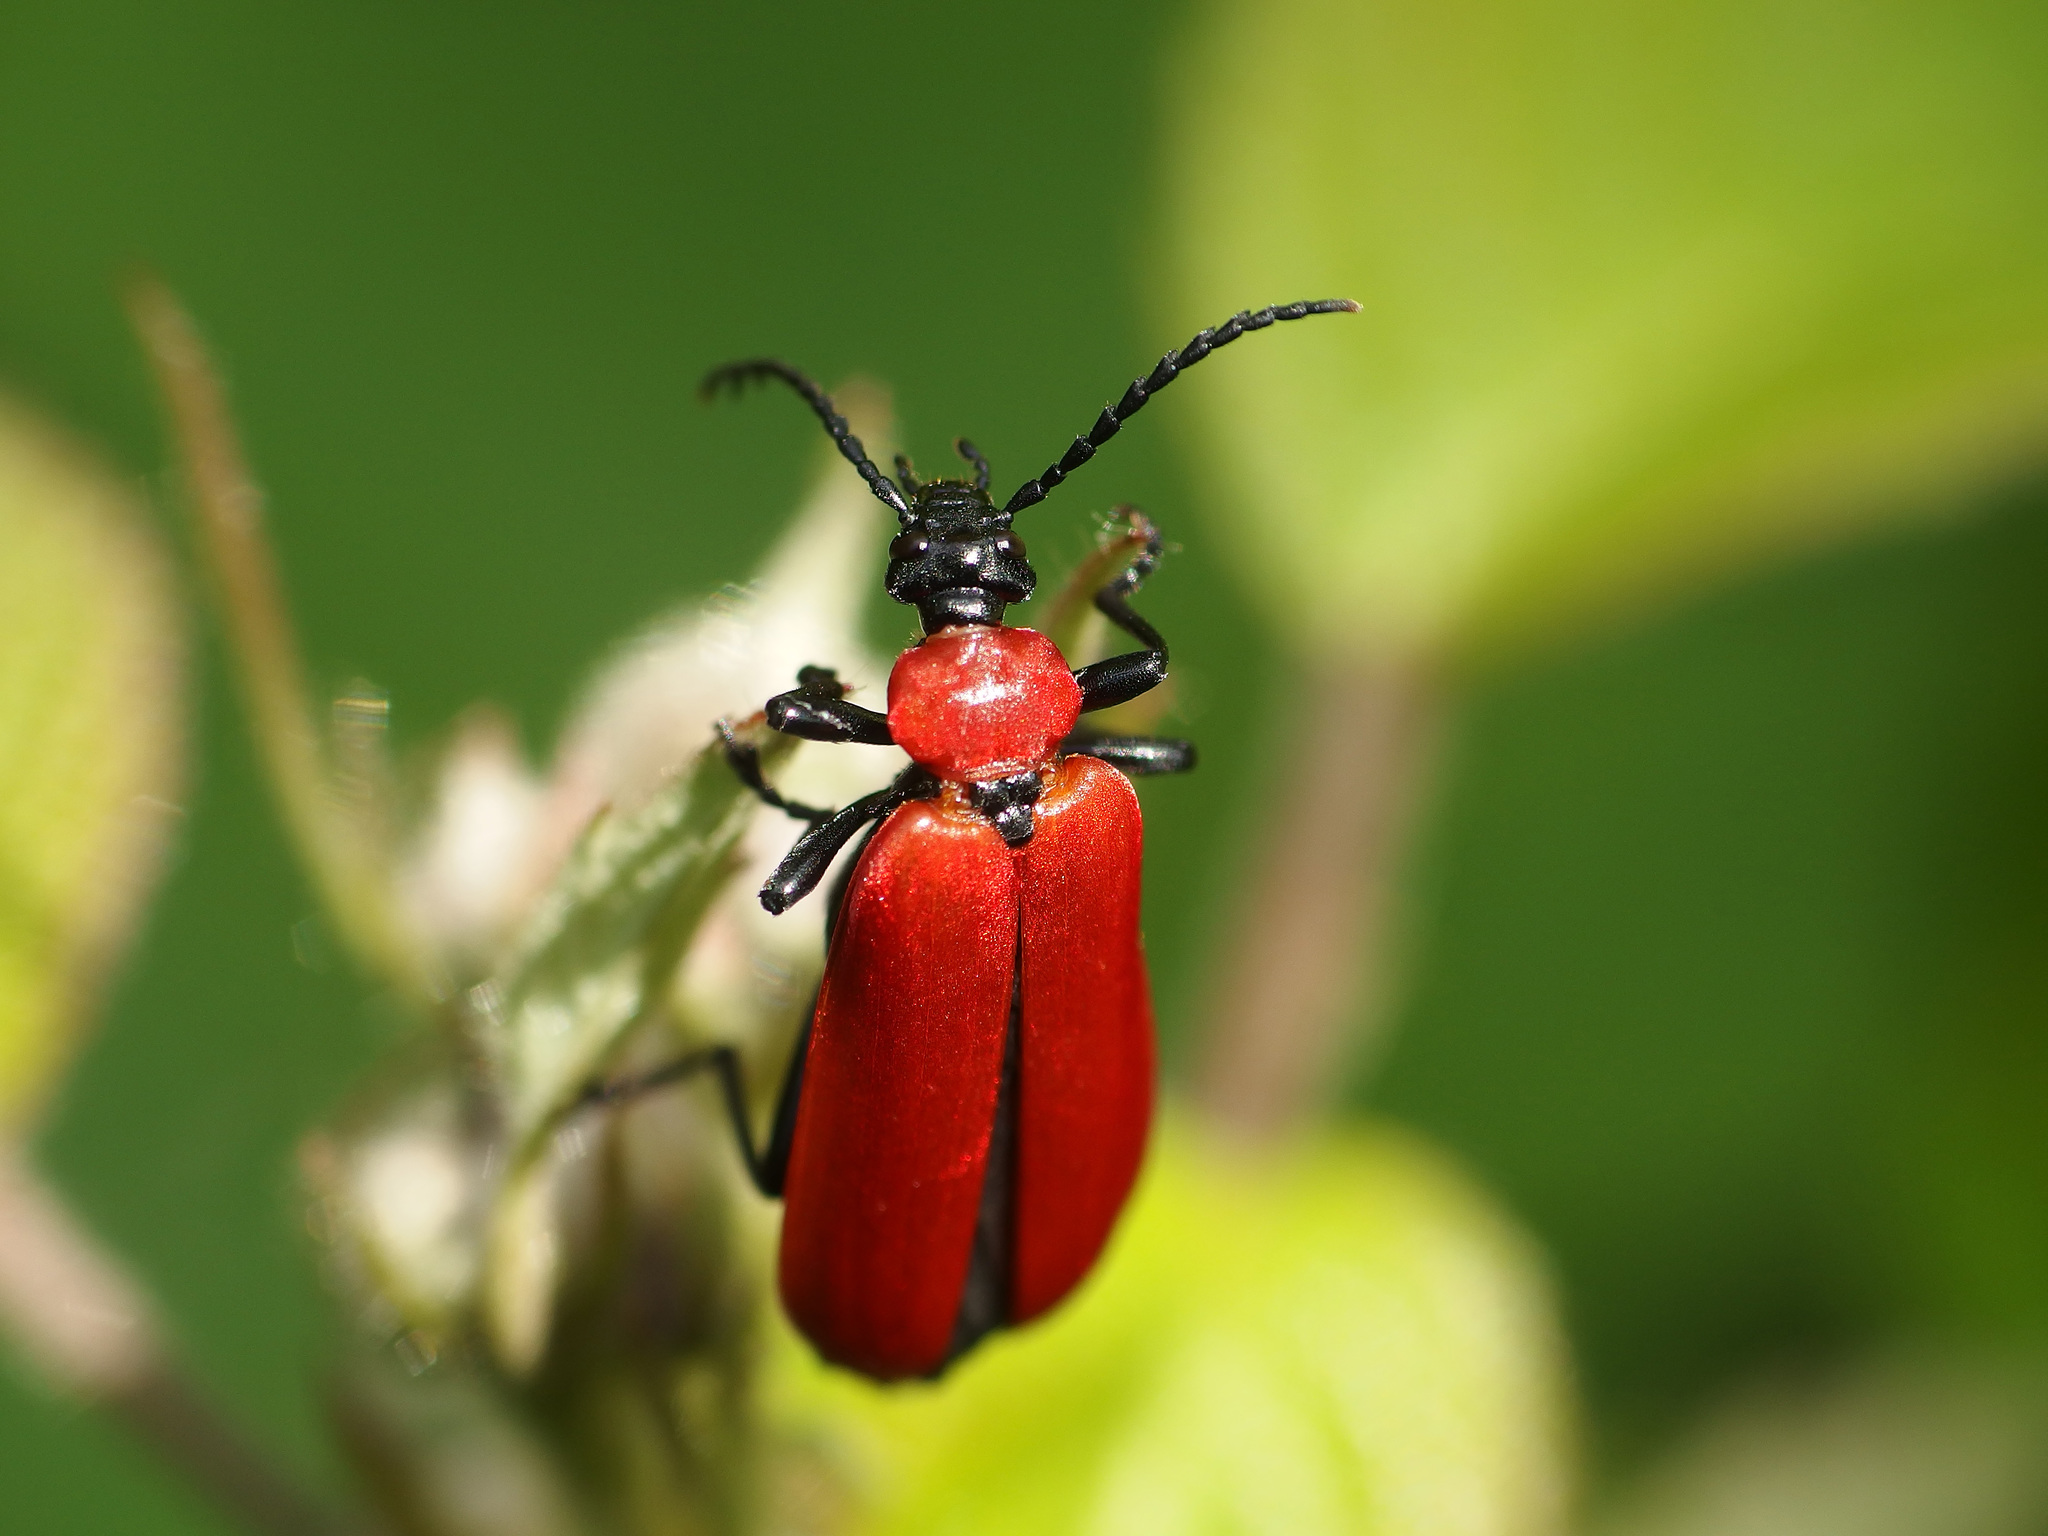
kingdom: Animalia
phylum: Arthropoda
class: Insecta
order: Coleoptera
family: Pyrochroidae
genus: Pyrochroa
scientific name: Pyrochroa coccinea
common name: Black-headed cardinal beetle
